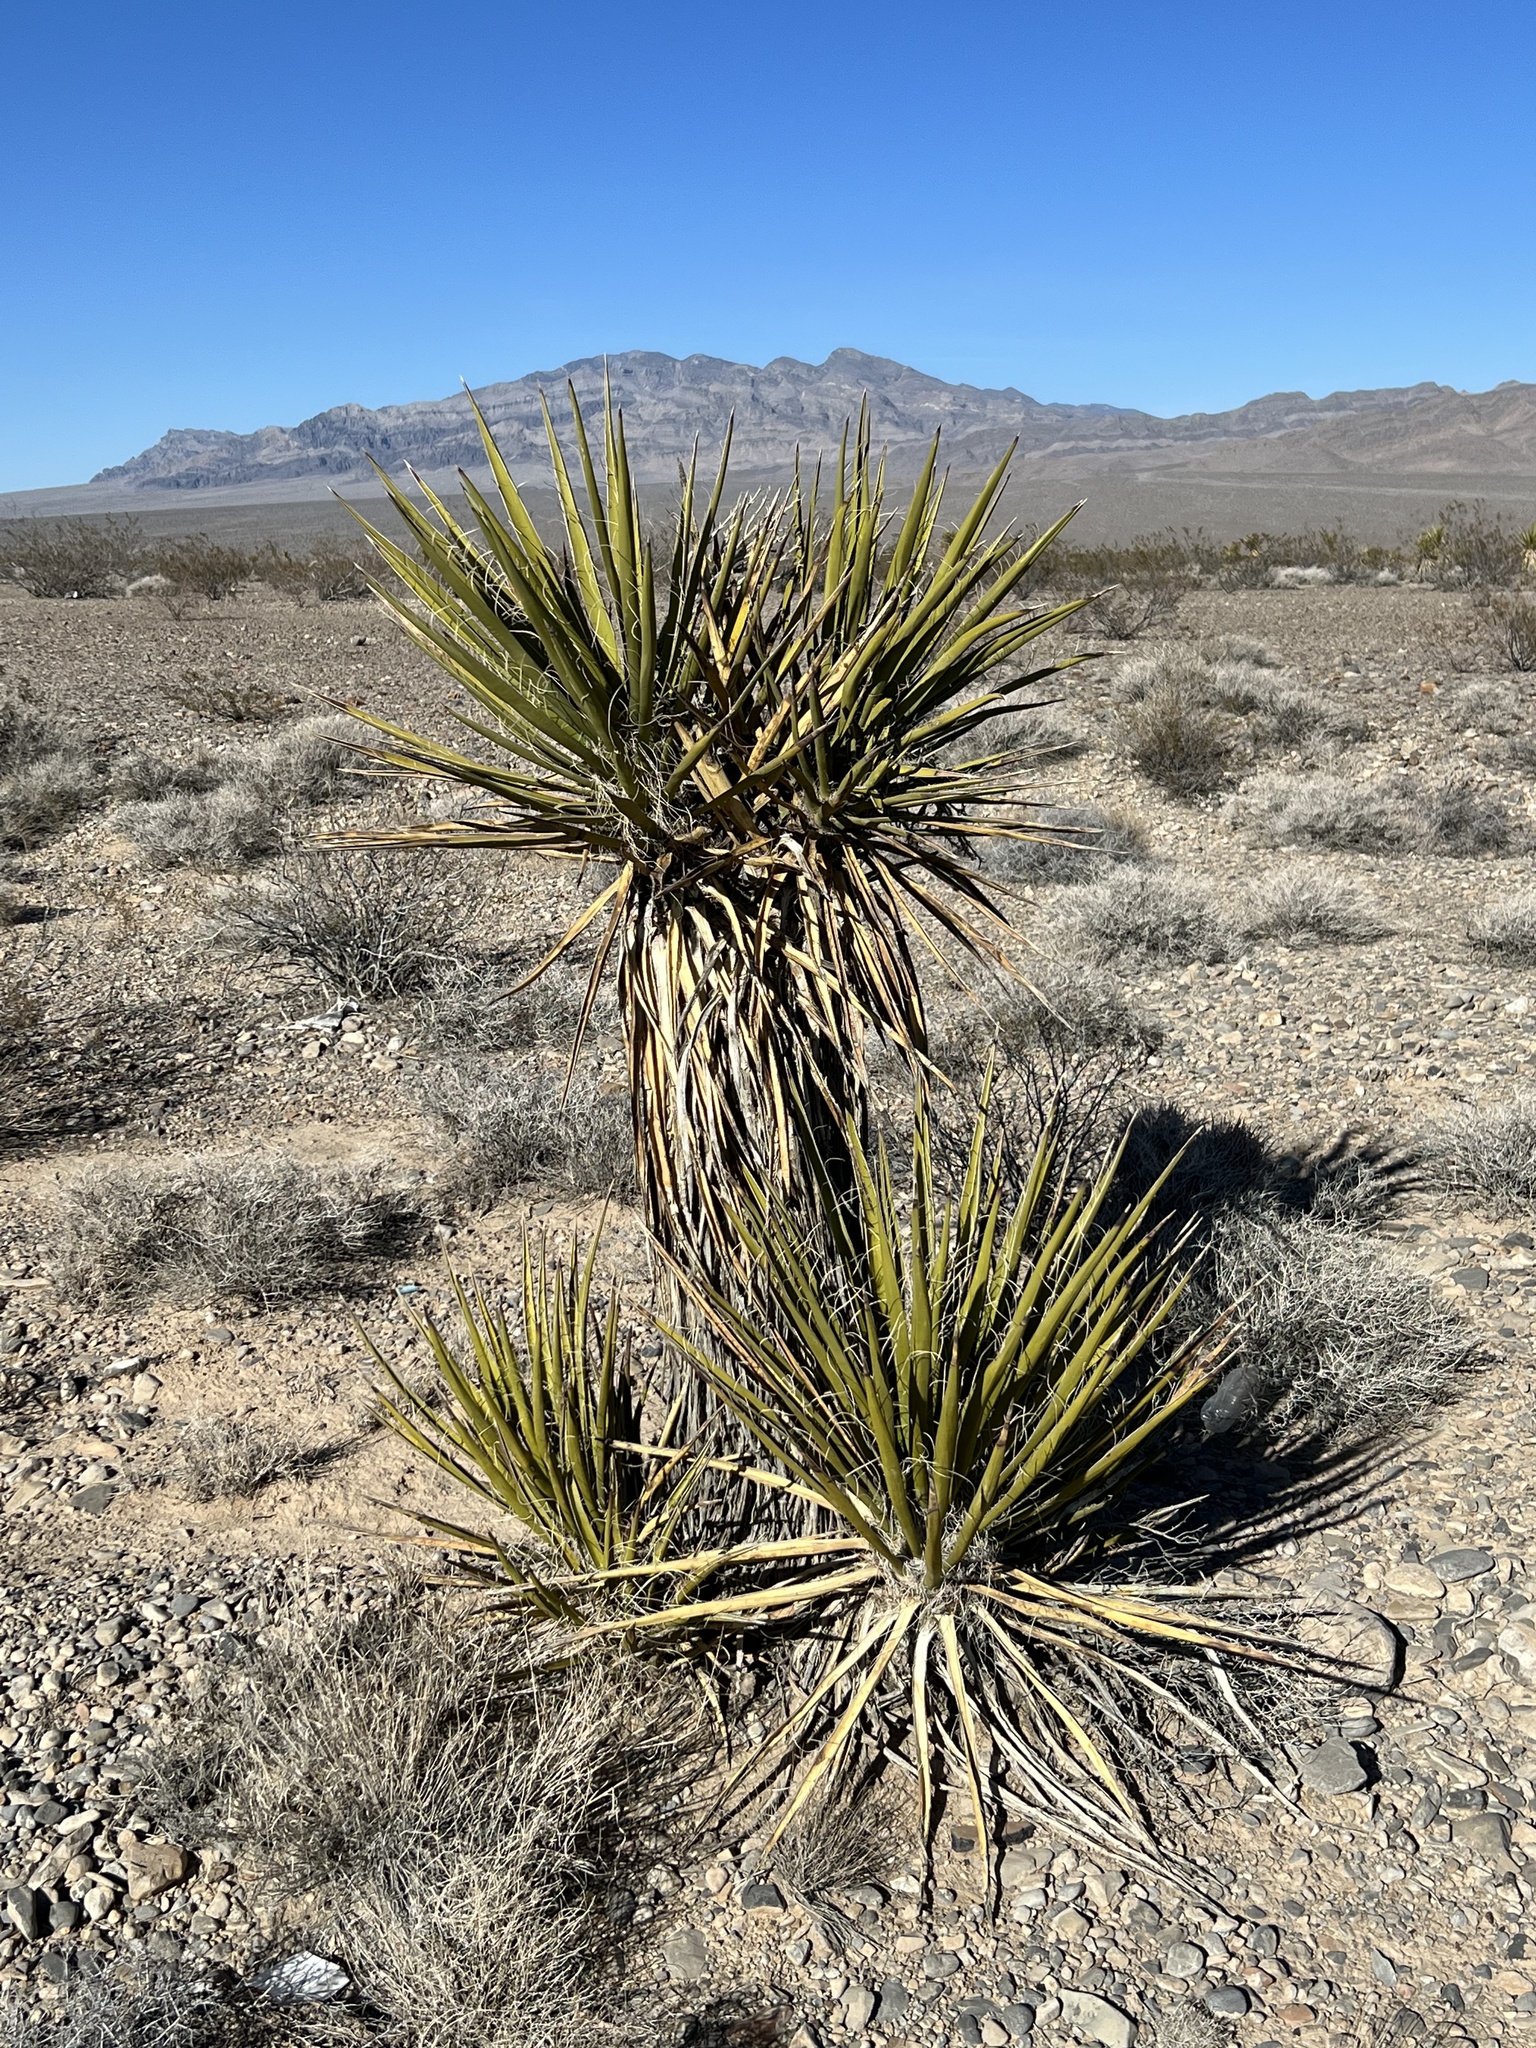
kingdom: Plantae
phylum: Tracheophyta
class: Liliopsida
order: Asparagales
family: Asparagaceae
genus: Yucca
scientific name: Yucca schidigera
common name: Mojave yucca
